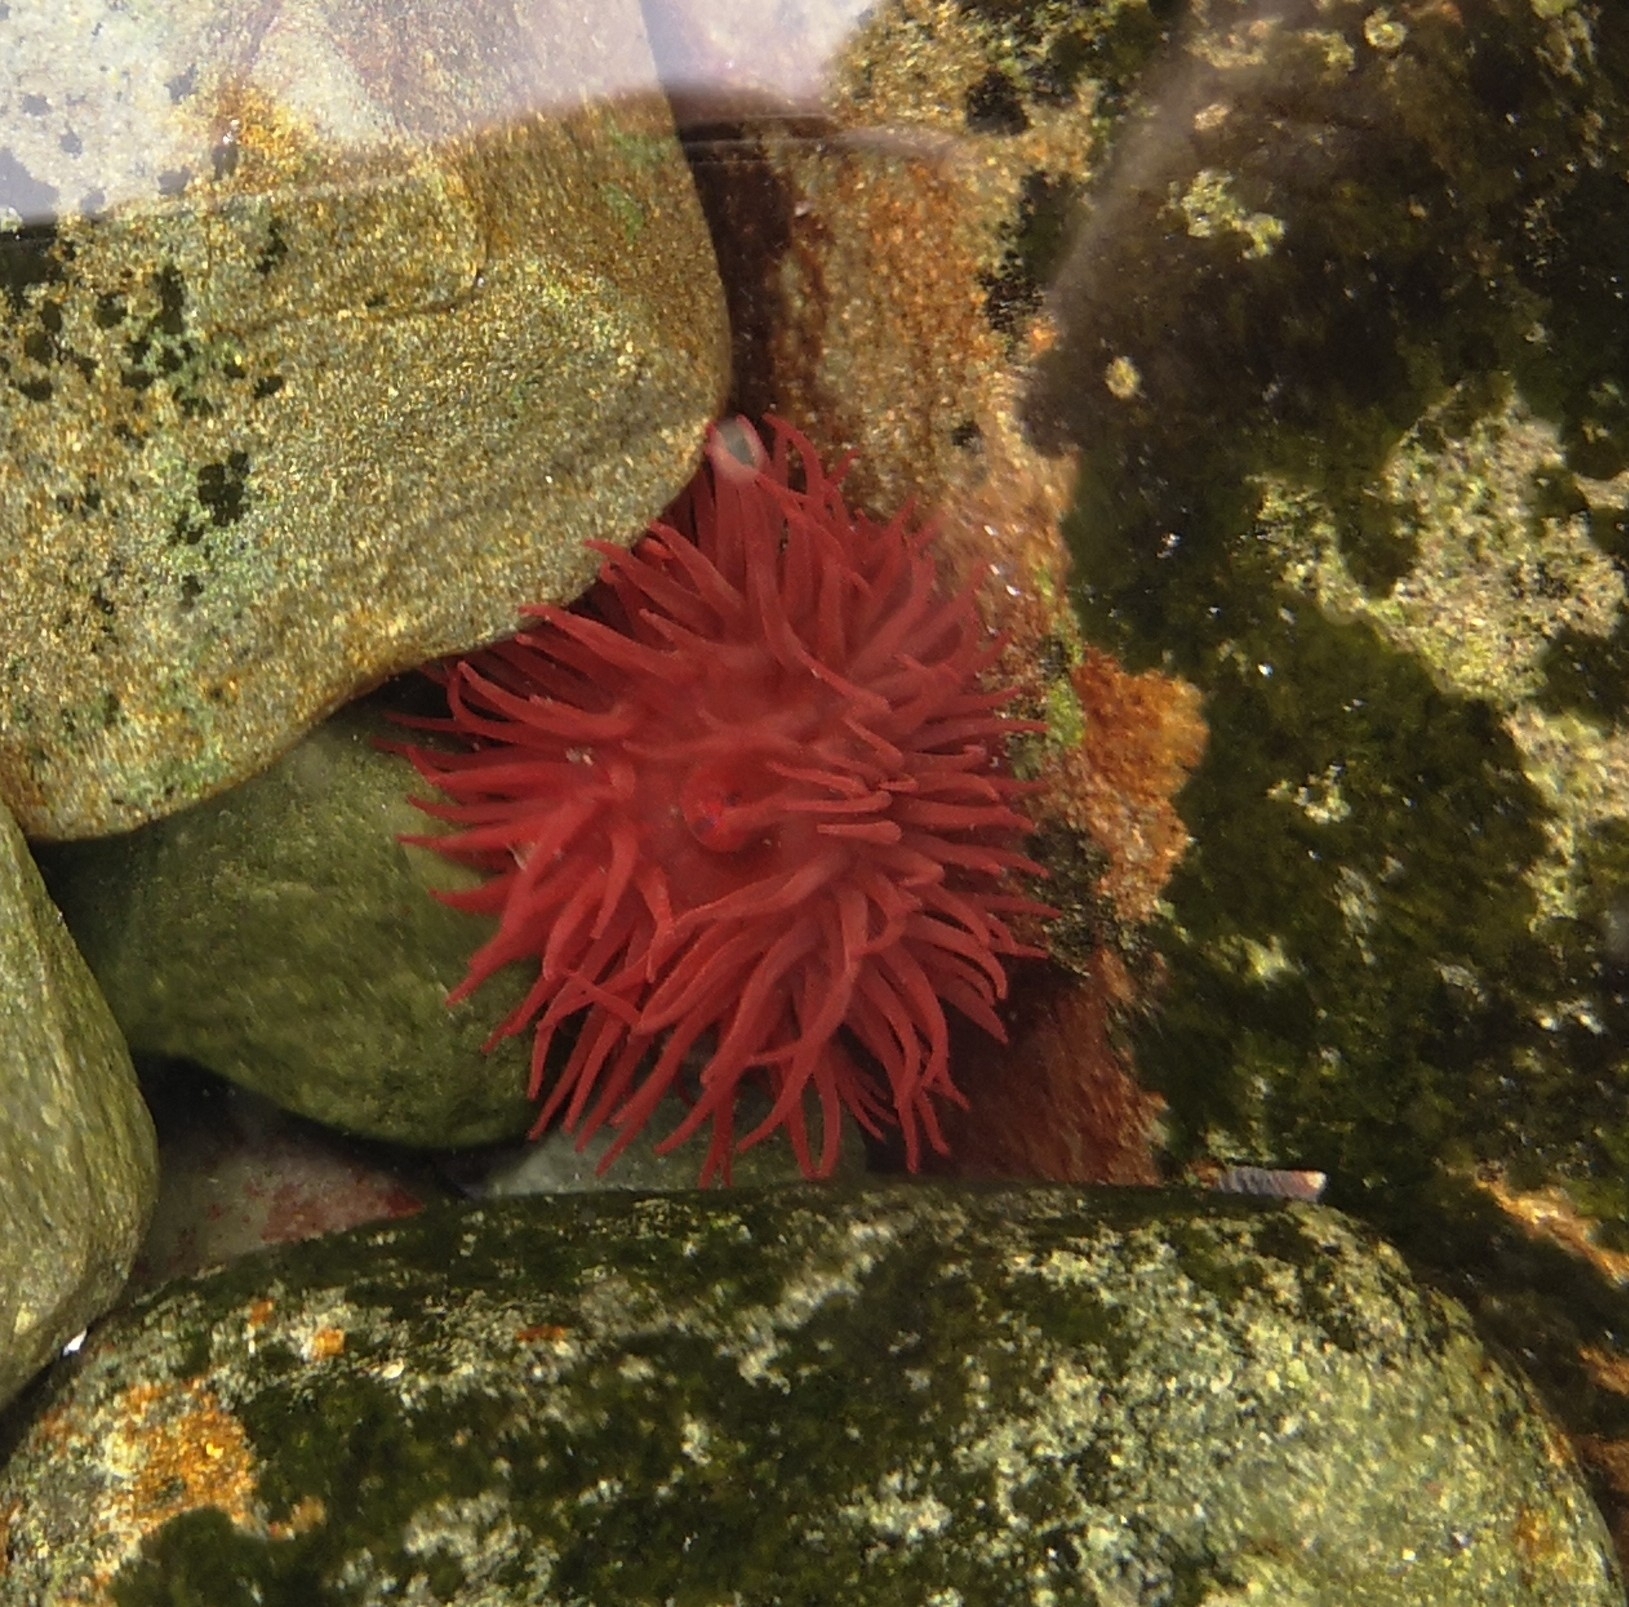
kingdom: Animalia
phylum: Cnidaria
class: Anthozoa
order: Actiniaria
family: Actiniidae
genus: Actinia
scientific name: Actinia equina
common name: Beadlet anemone
